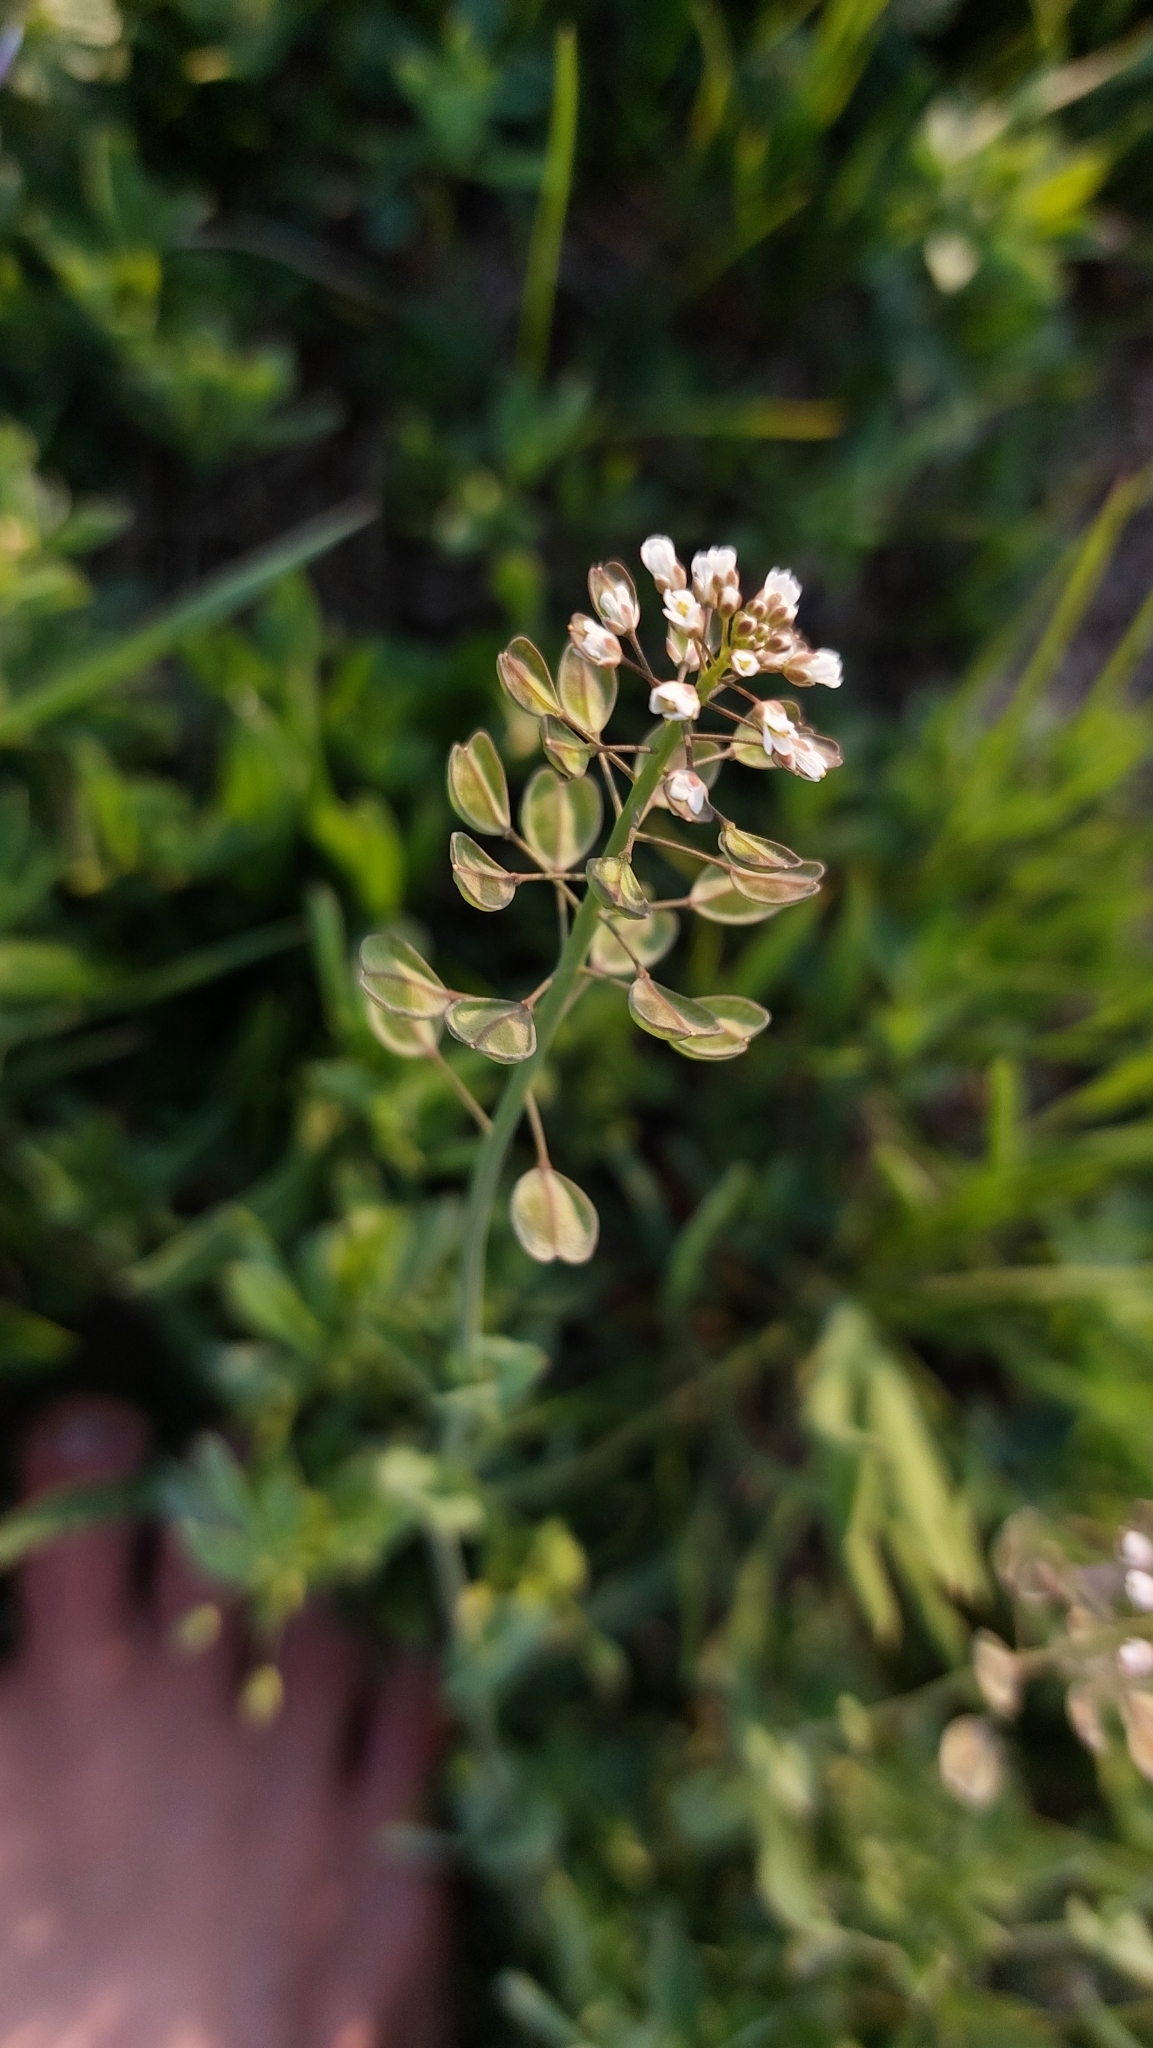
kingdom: Plantae
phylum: Tracheophyta
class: Magnoliopsida
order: Brassicales
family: Brassicaceae
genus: Noccaea
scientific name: Noccaea perfoliata
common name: Perfoliate pennycress
